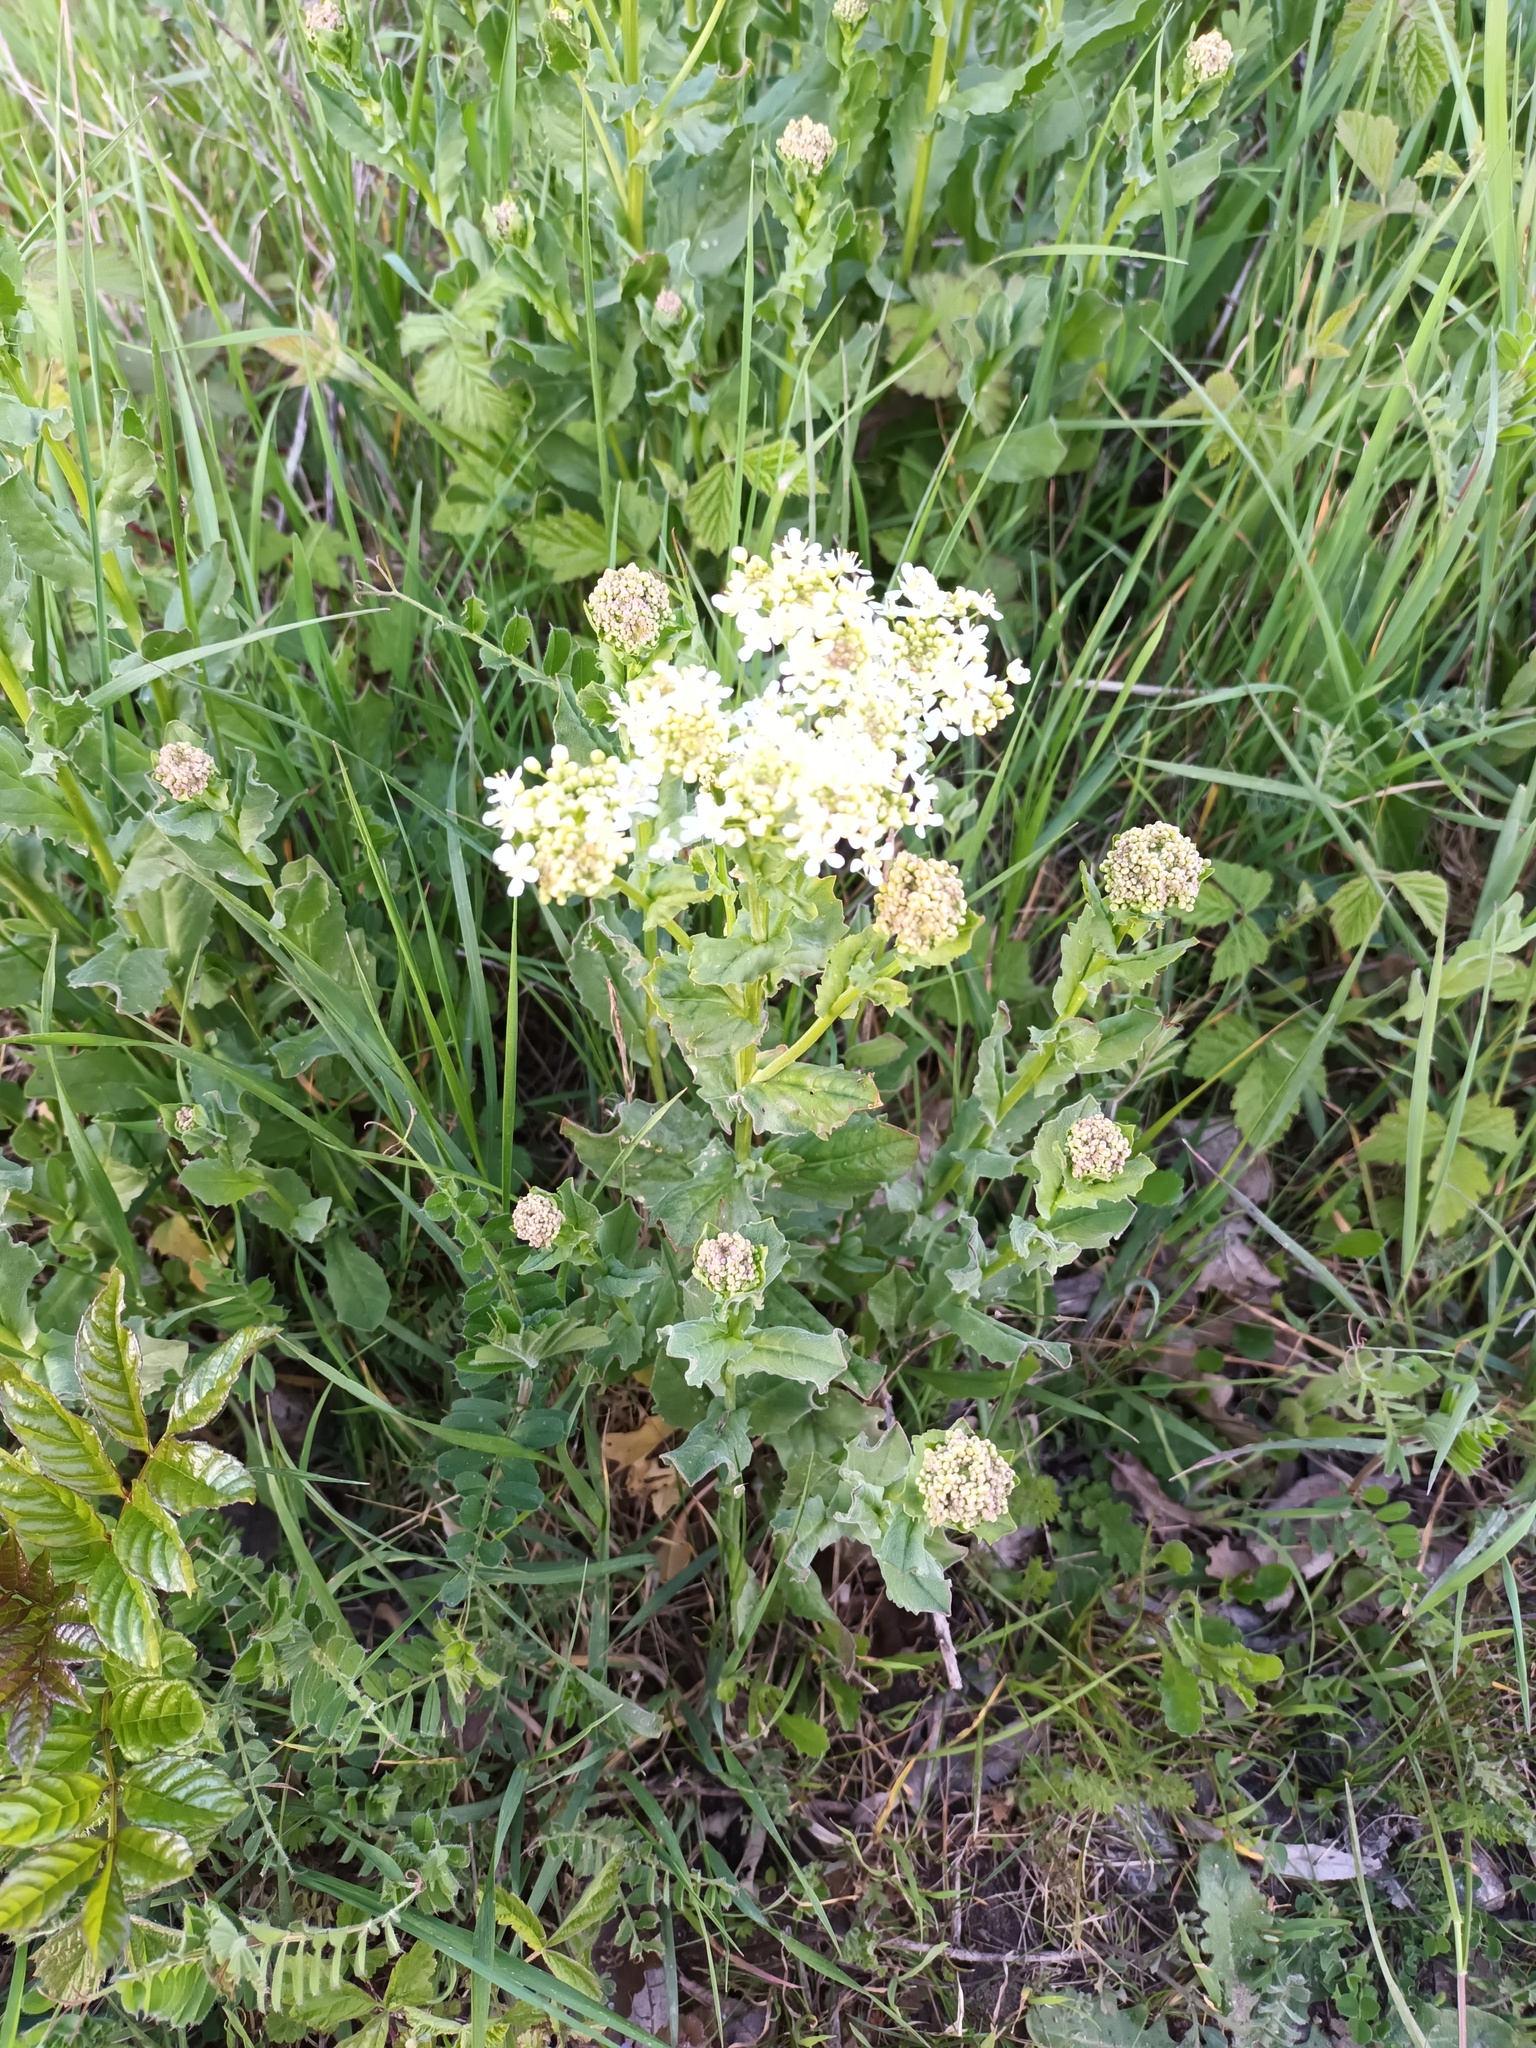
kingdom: Plantae
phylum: Tracheophyta
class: Magnoliopsida
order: Brassicales
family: Brassicaceae
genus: Lepidium
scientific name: Lepidium draba
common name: Hoary cress
